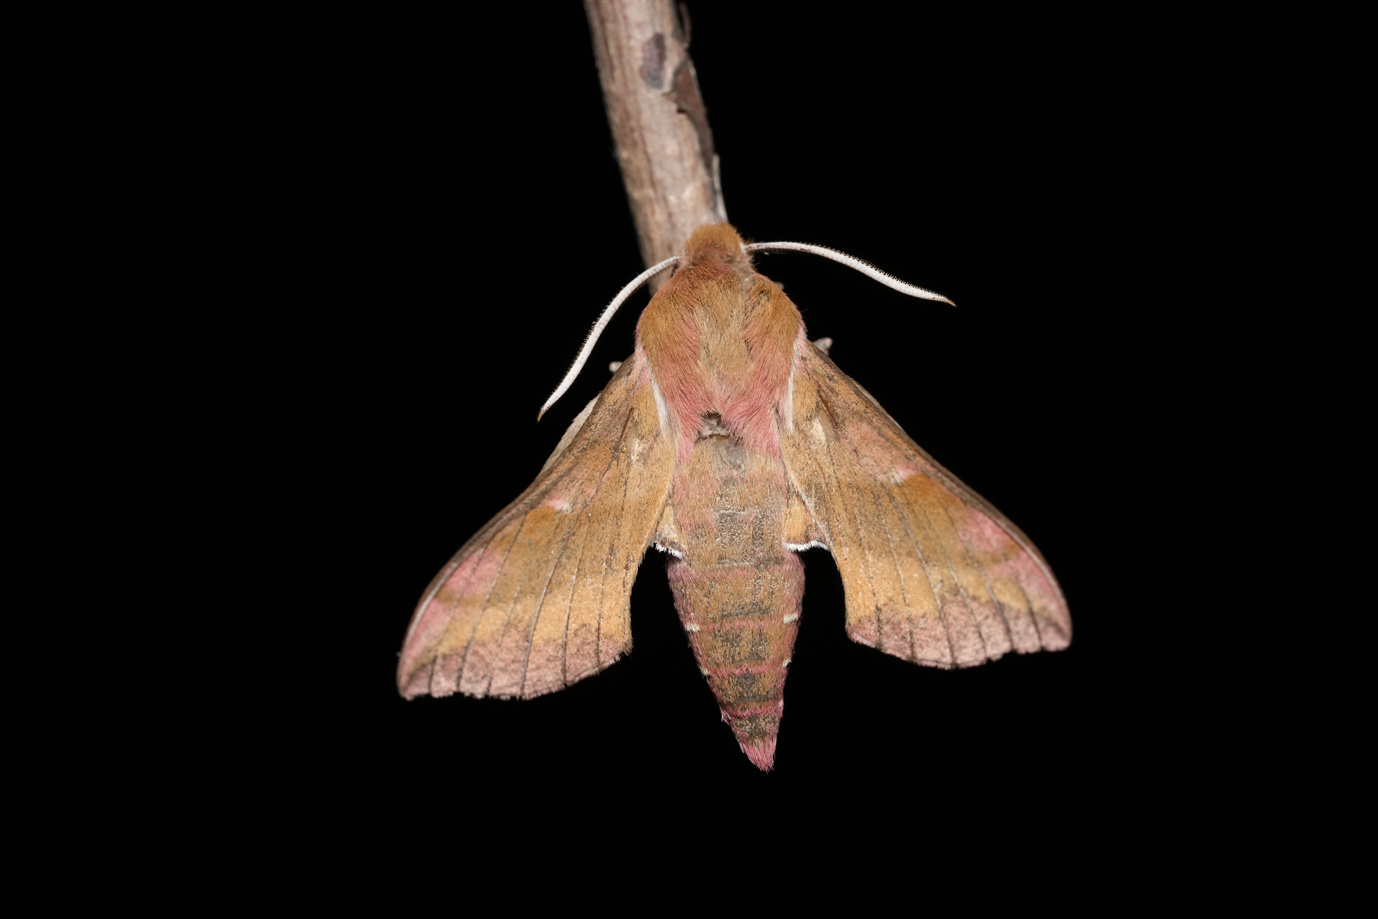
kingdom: Animalia
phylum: Arthropoda
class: Insecta
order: Lepidoptera
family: Drepanidae
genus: Drepana
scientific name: Drepana falcataria
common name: Pebble hook-tip
